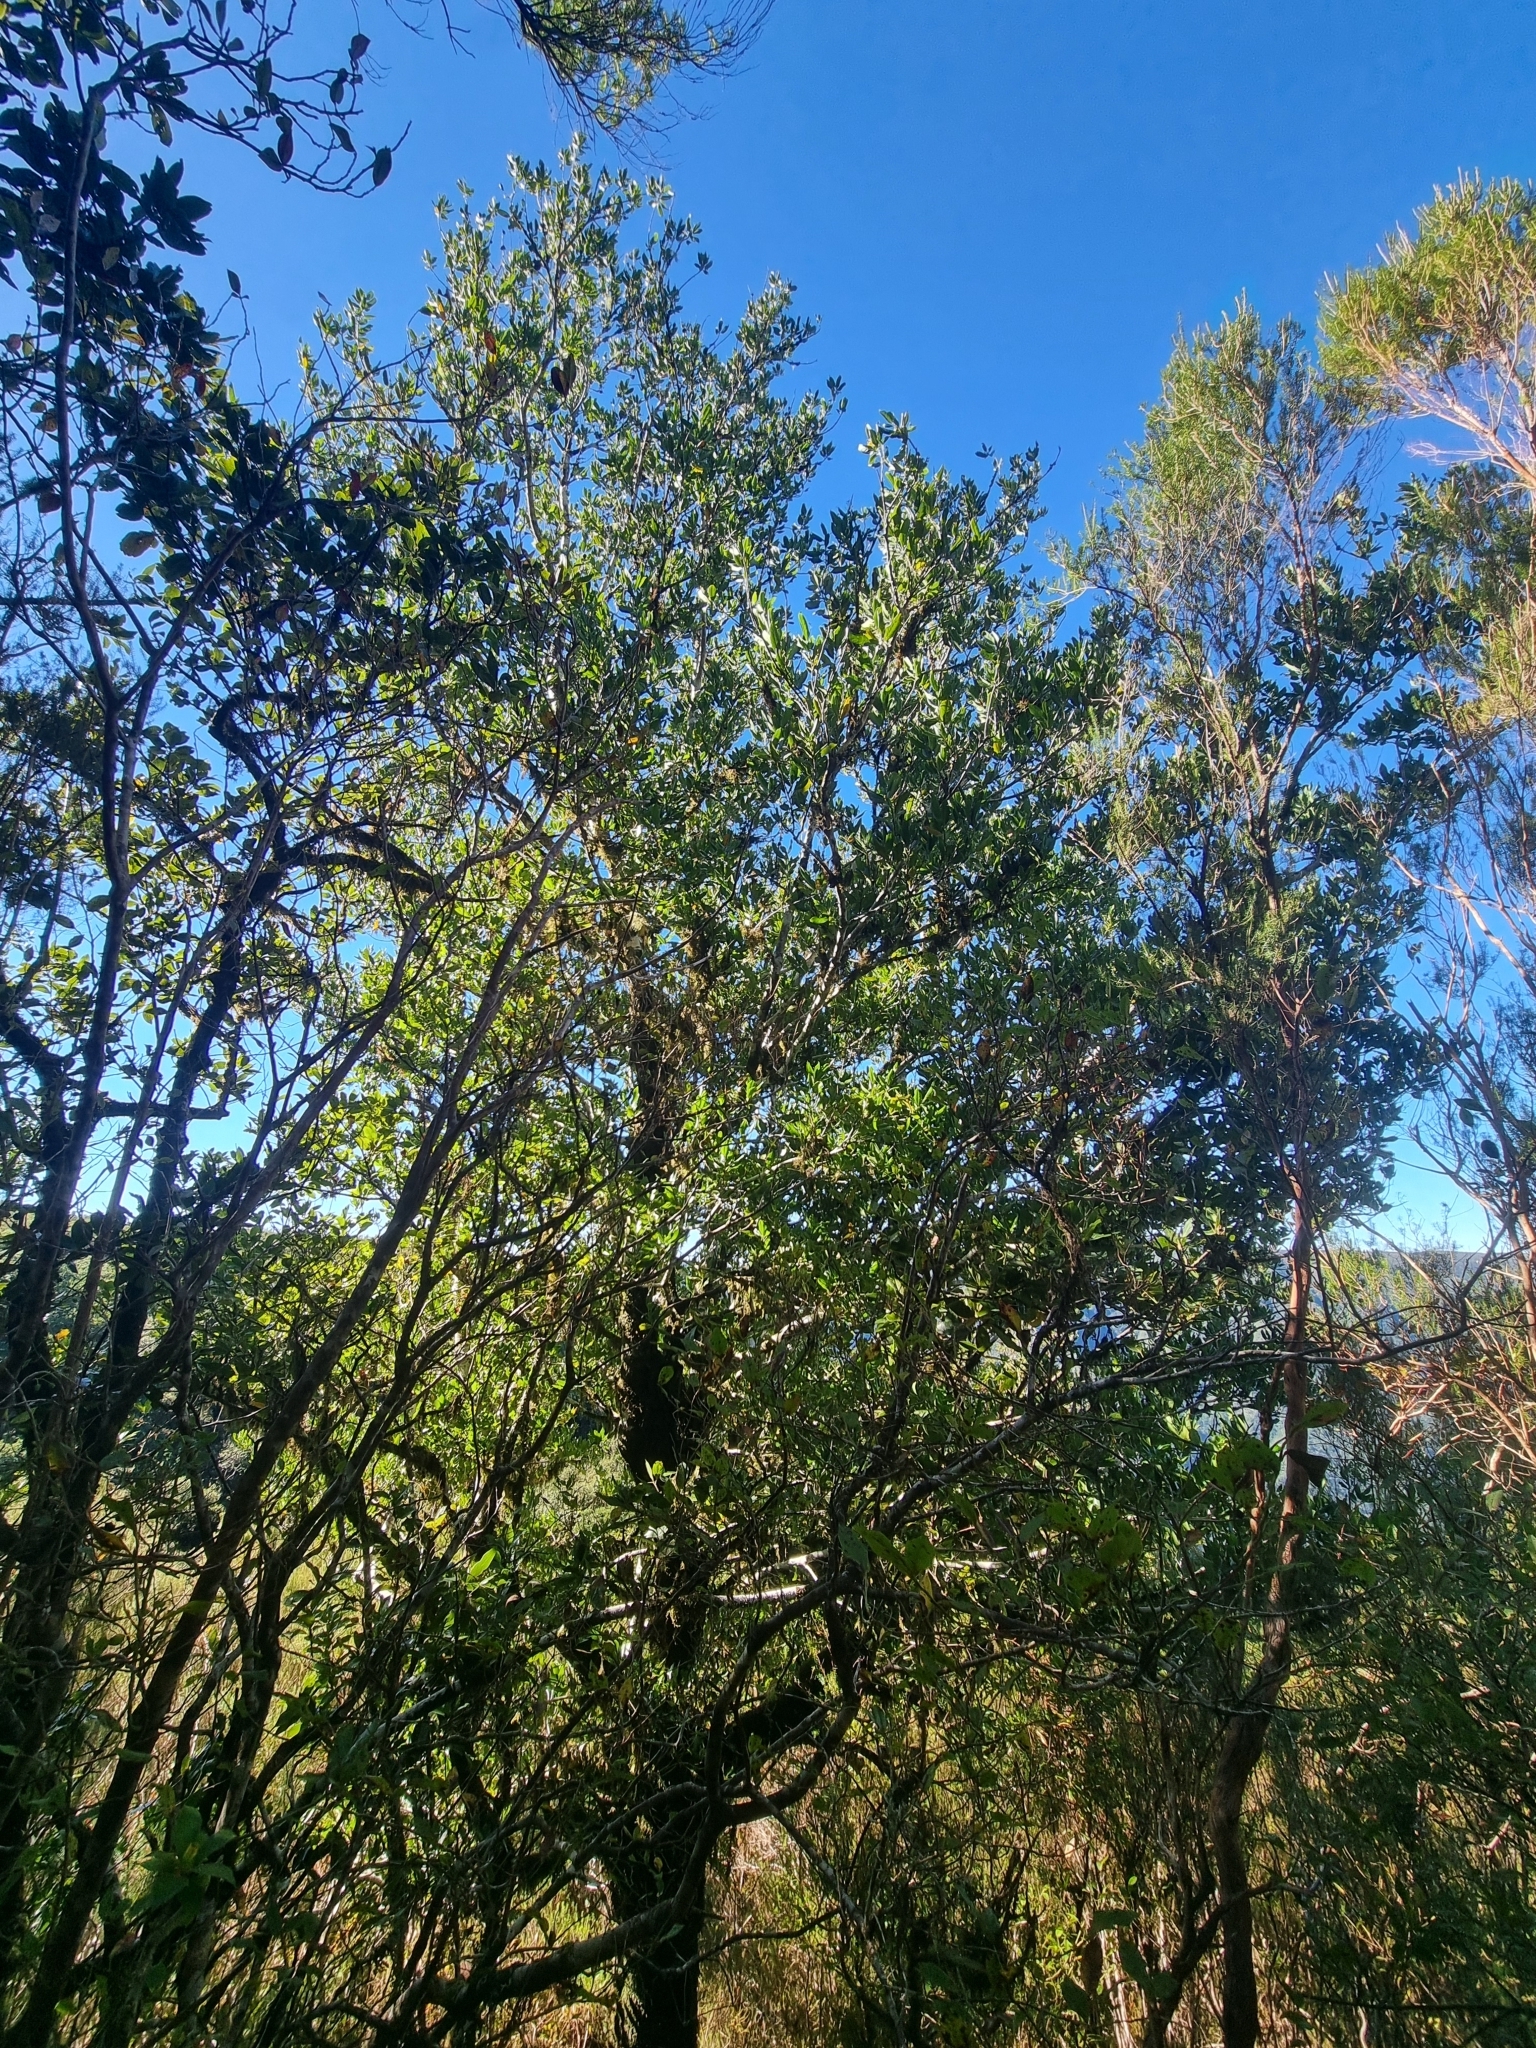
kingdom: Plantae
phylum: Tracheophyta
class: Magnoliopsida
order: Laurales
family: Lauraceae
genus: Mespilodaphne
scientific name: Mespilodaphne foetens
